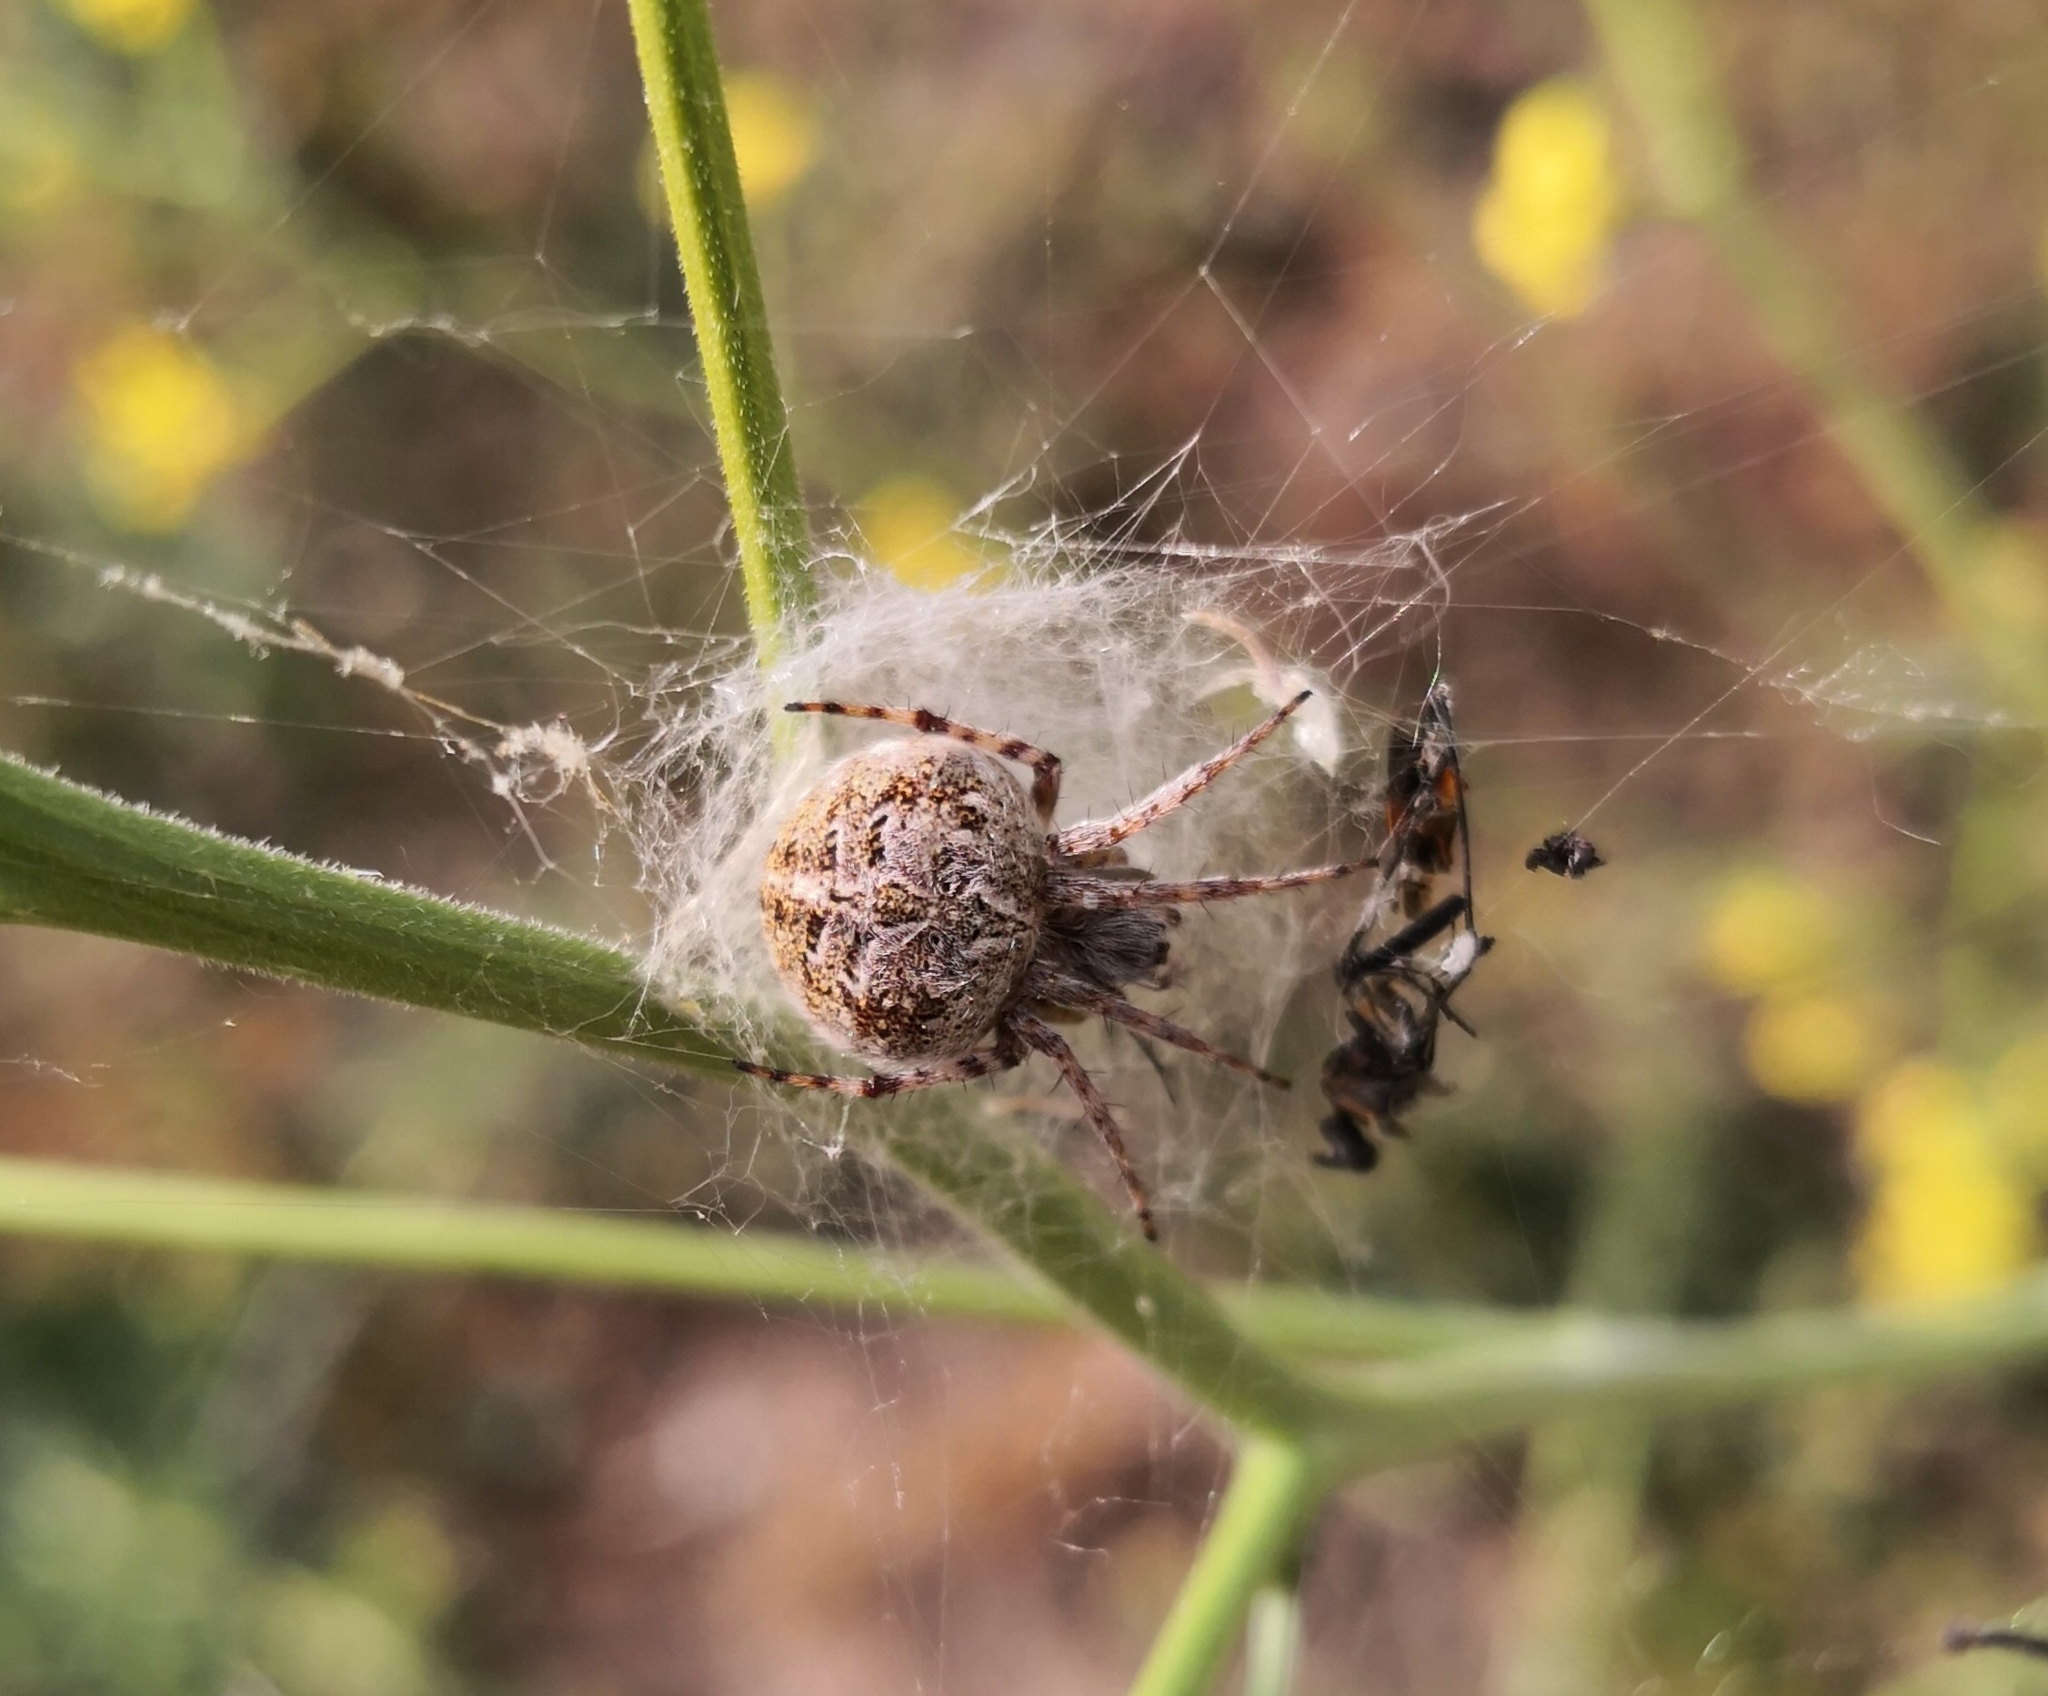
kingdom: Animalia
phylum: Arthropoda
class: Arachnida
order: Araneae
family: Araneidae
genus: Agalenatea
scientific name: Agalenatea redii
